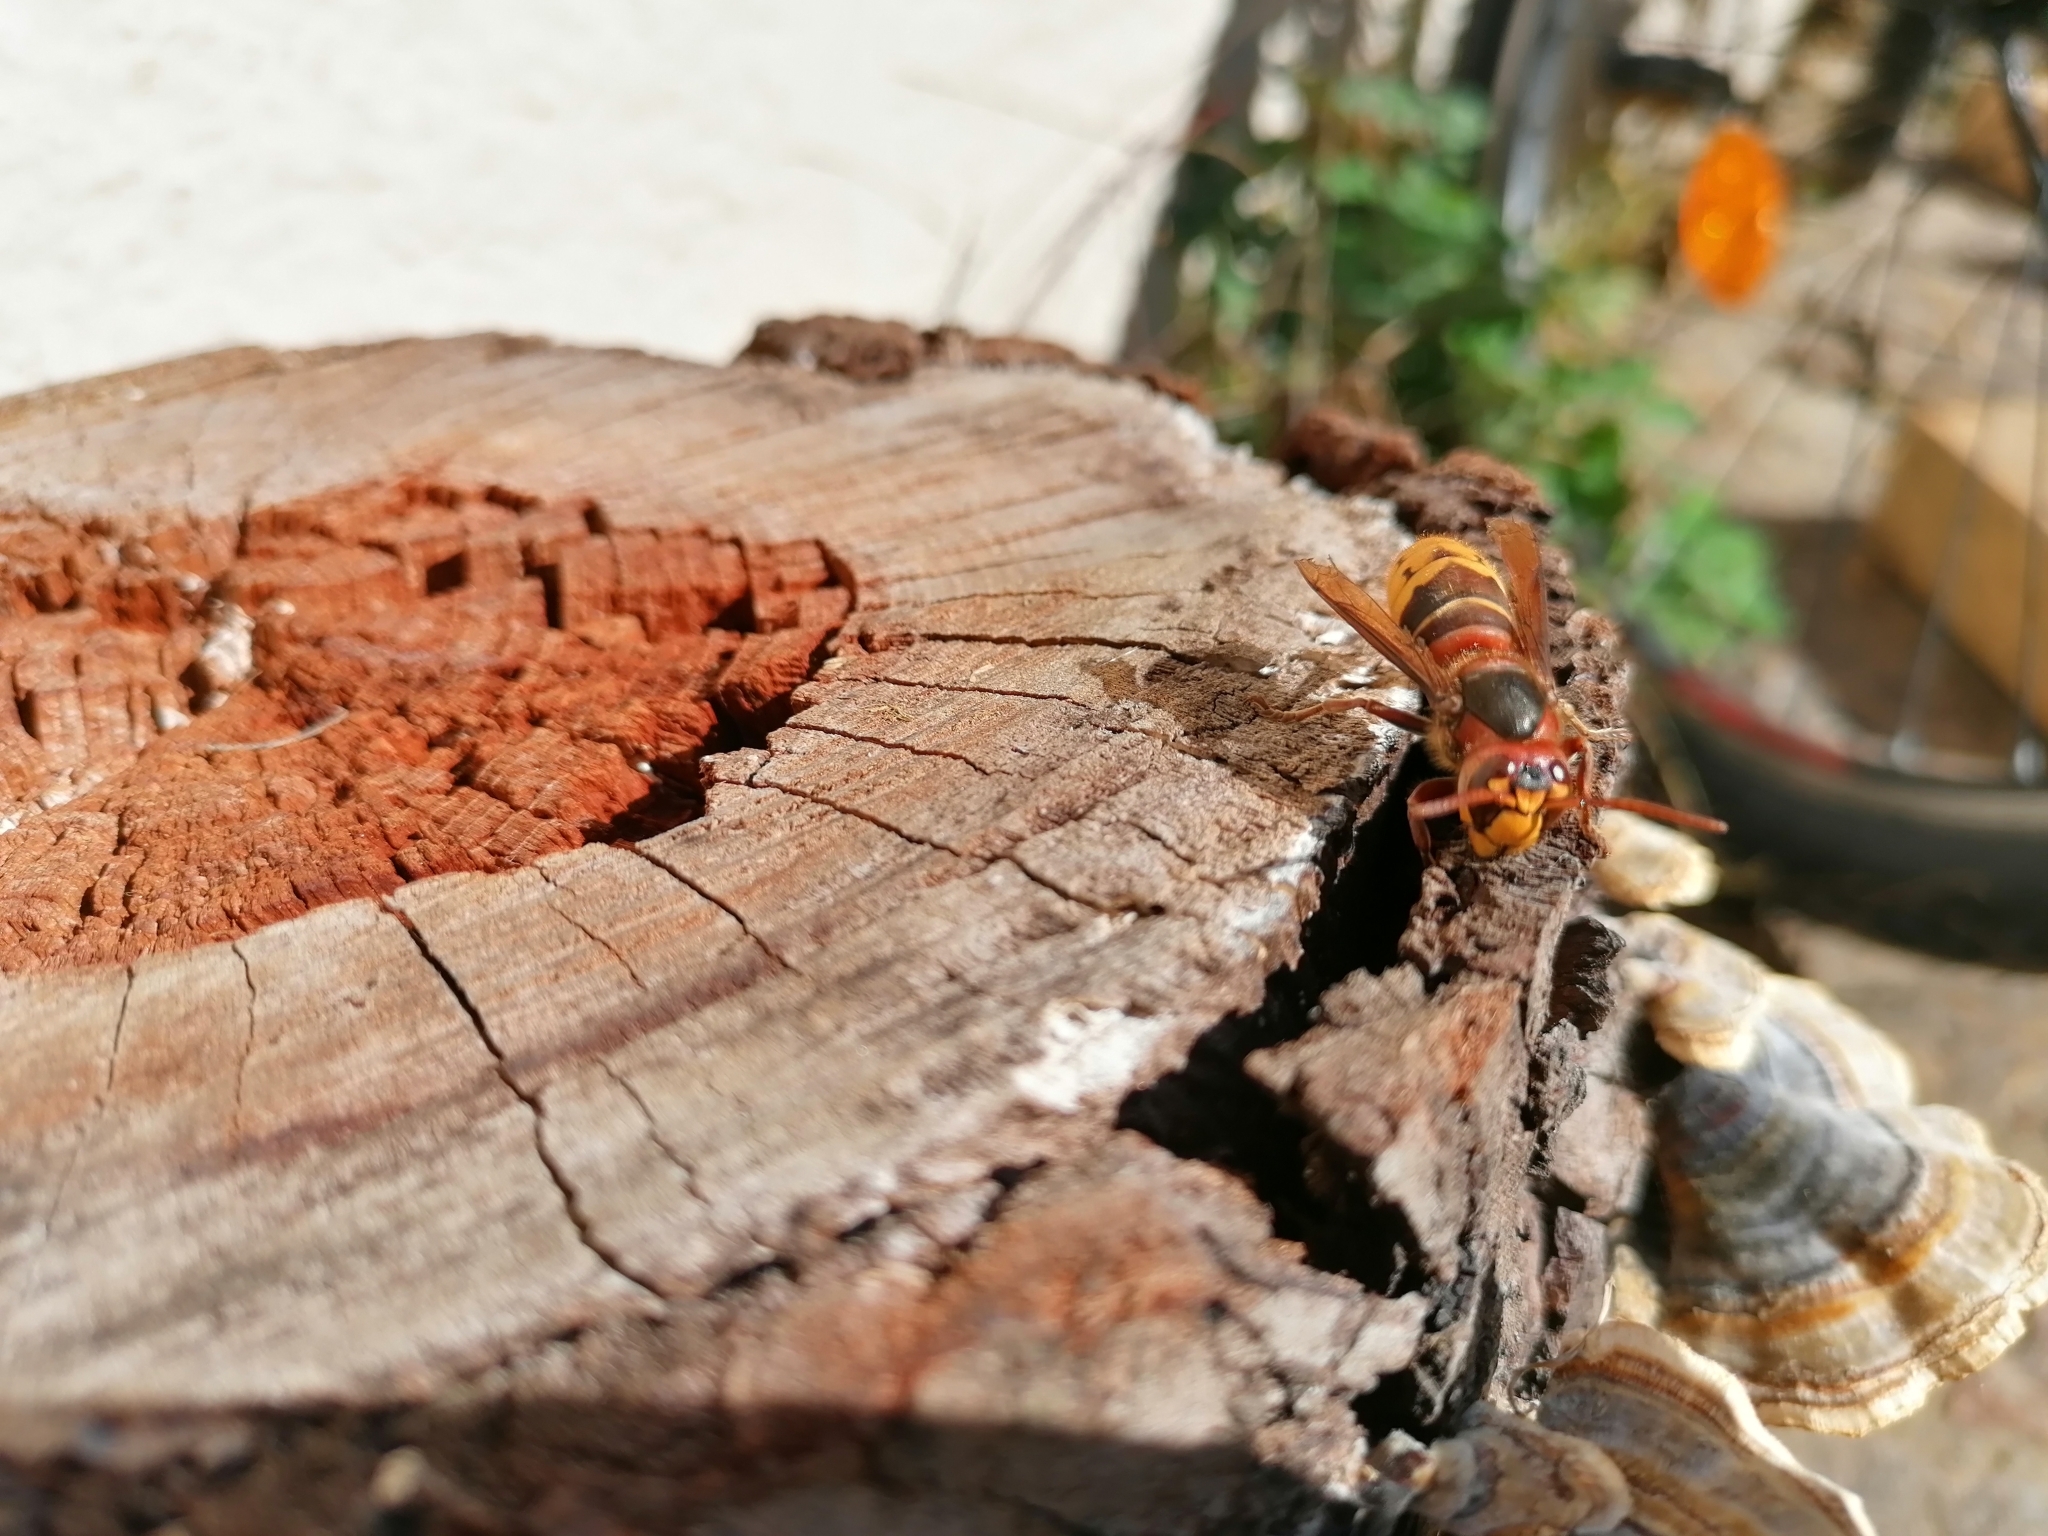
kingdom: Animalia
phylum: Arthropoda
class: Insecta
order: Hymenoptera
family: Vespidae
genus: Vespa
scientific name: Vespa crabro
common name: Hornet
